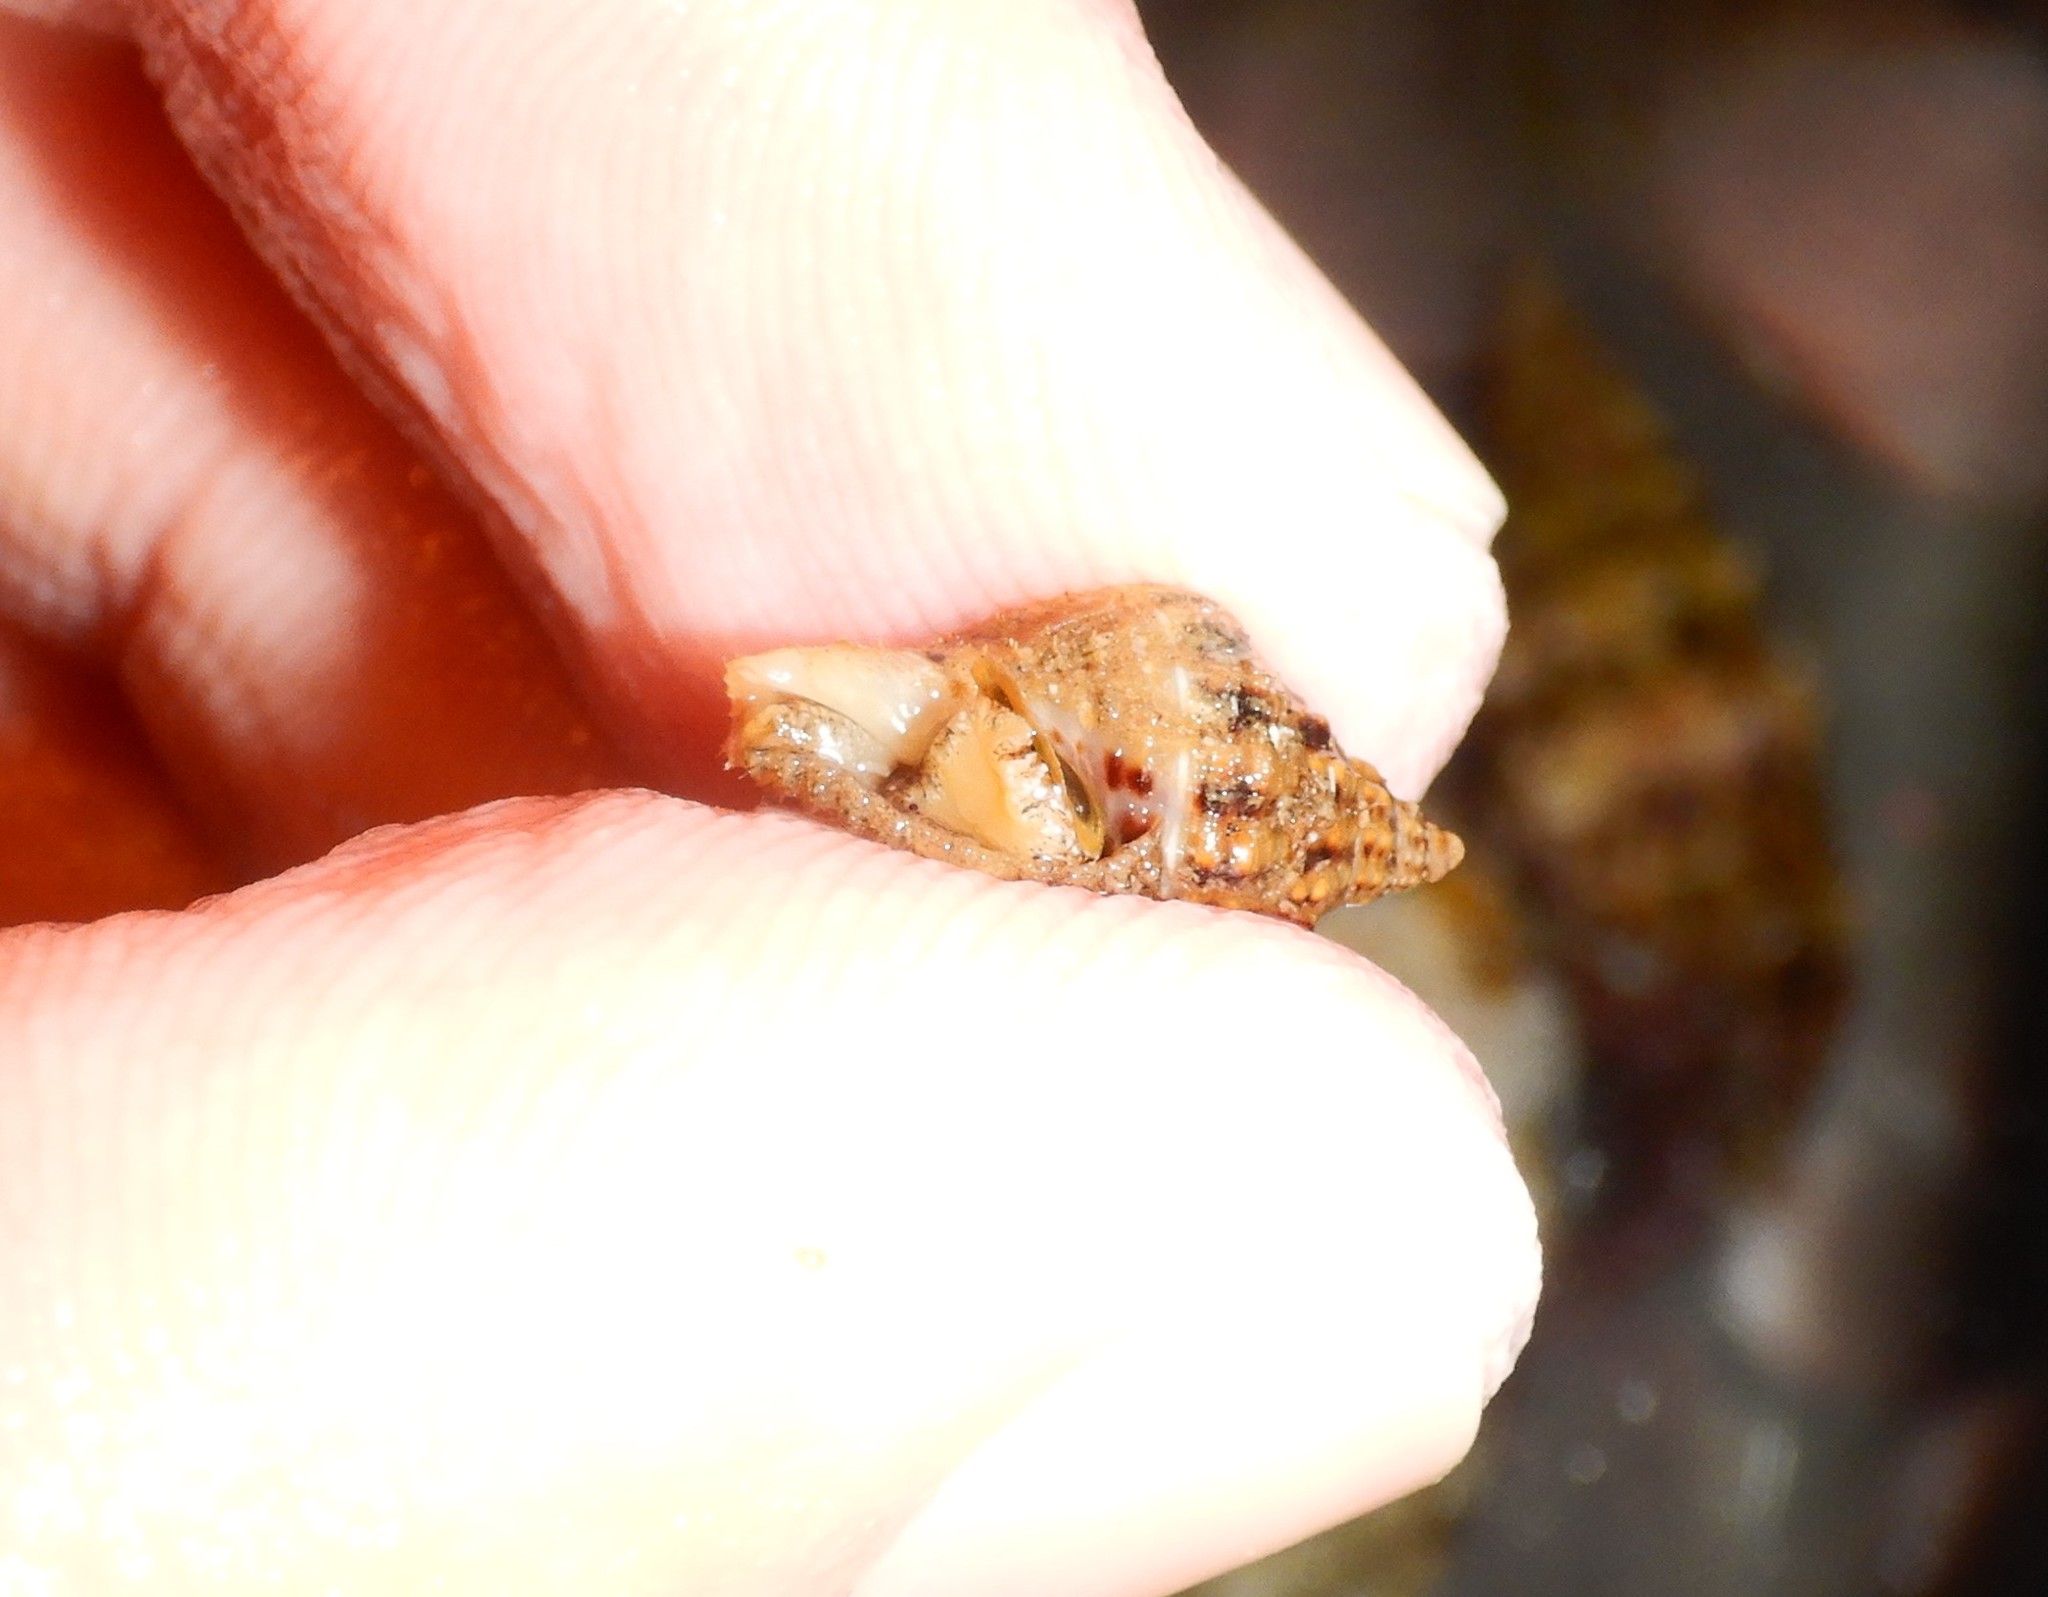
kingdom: Animalia
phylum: Mollusca
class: Gastropoda
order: Neogastropoda
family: Pisaniidae
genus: Aplus
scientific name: Aplus dorbignyi
